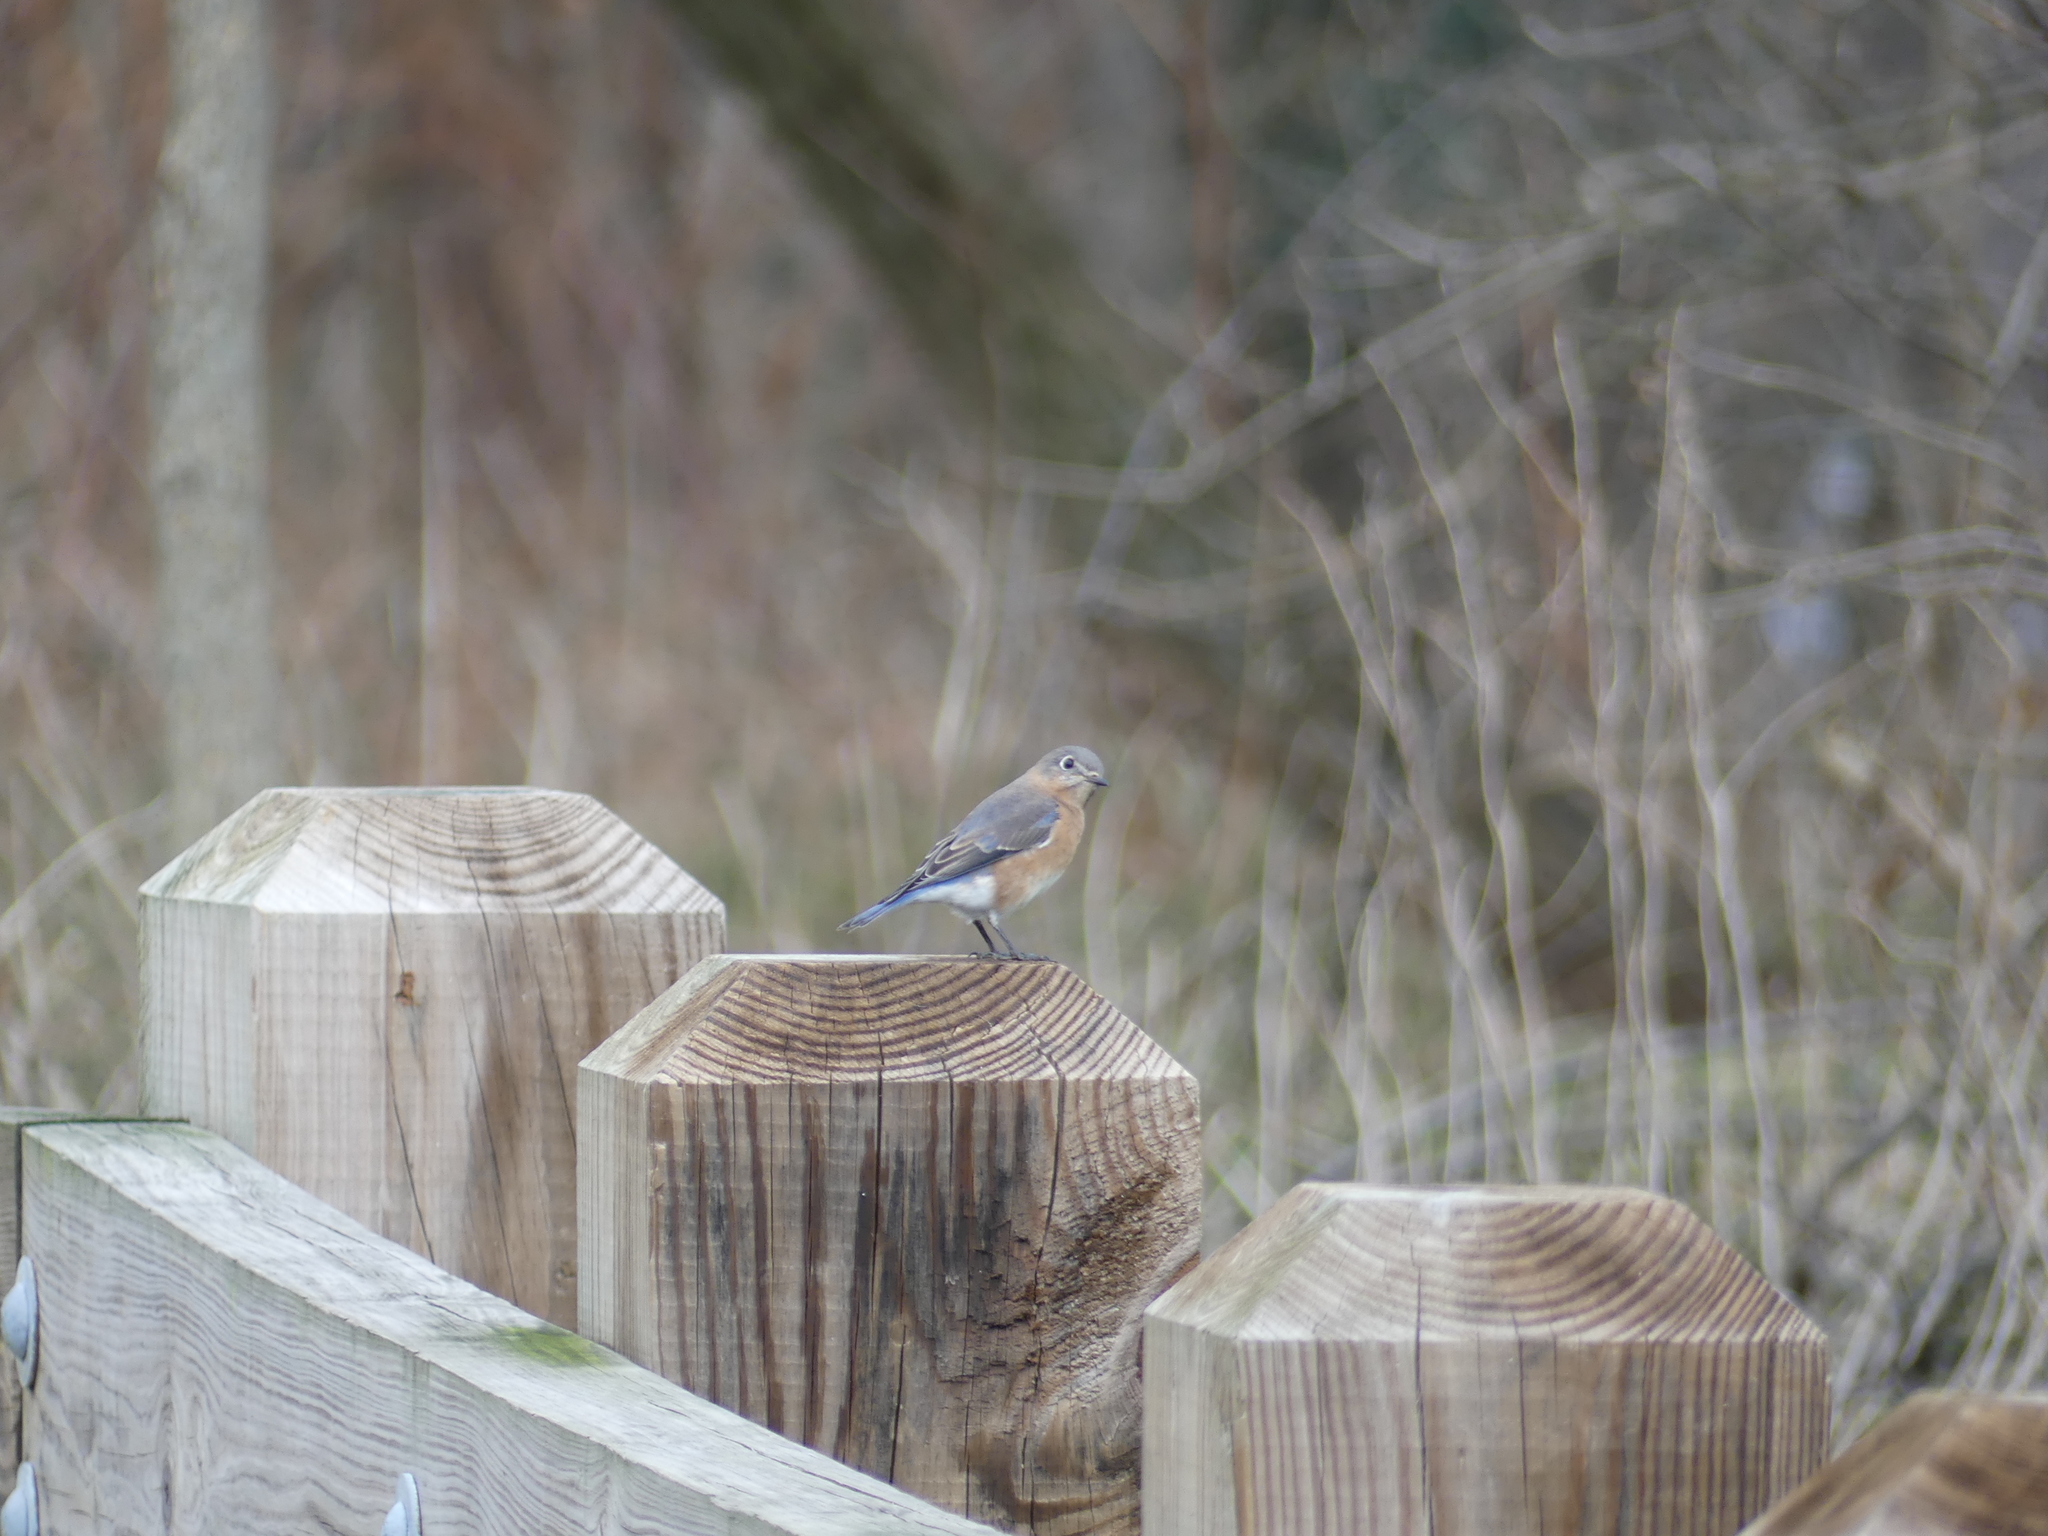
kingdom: Animalia
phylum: Chordata
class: Aves
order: Passeriformes
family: Turdidae
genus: Sialia
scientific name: Sialia sialis
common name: Eastern bluebird
